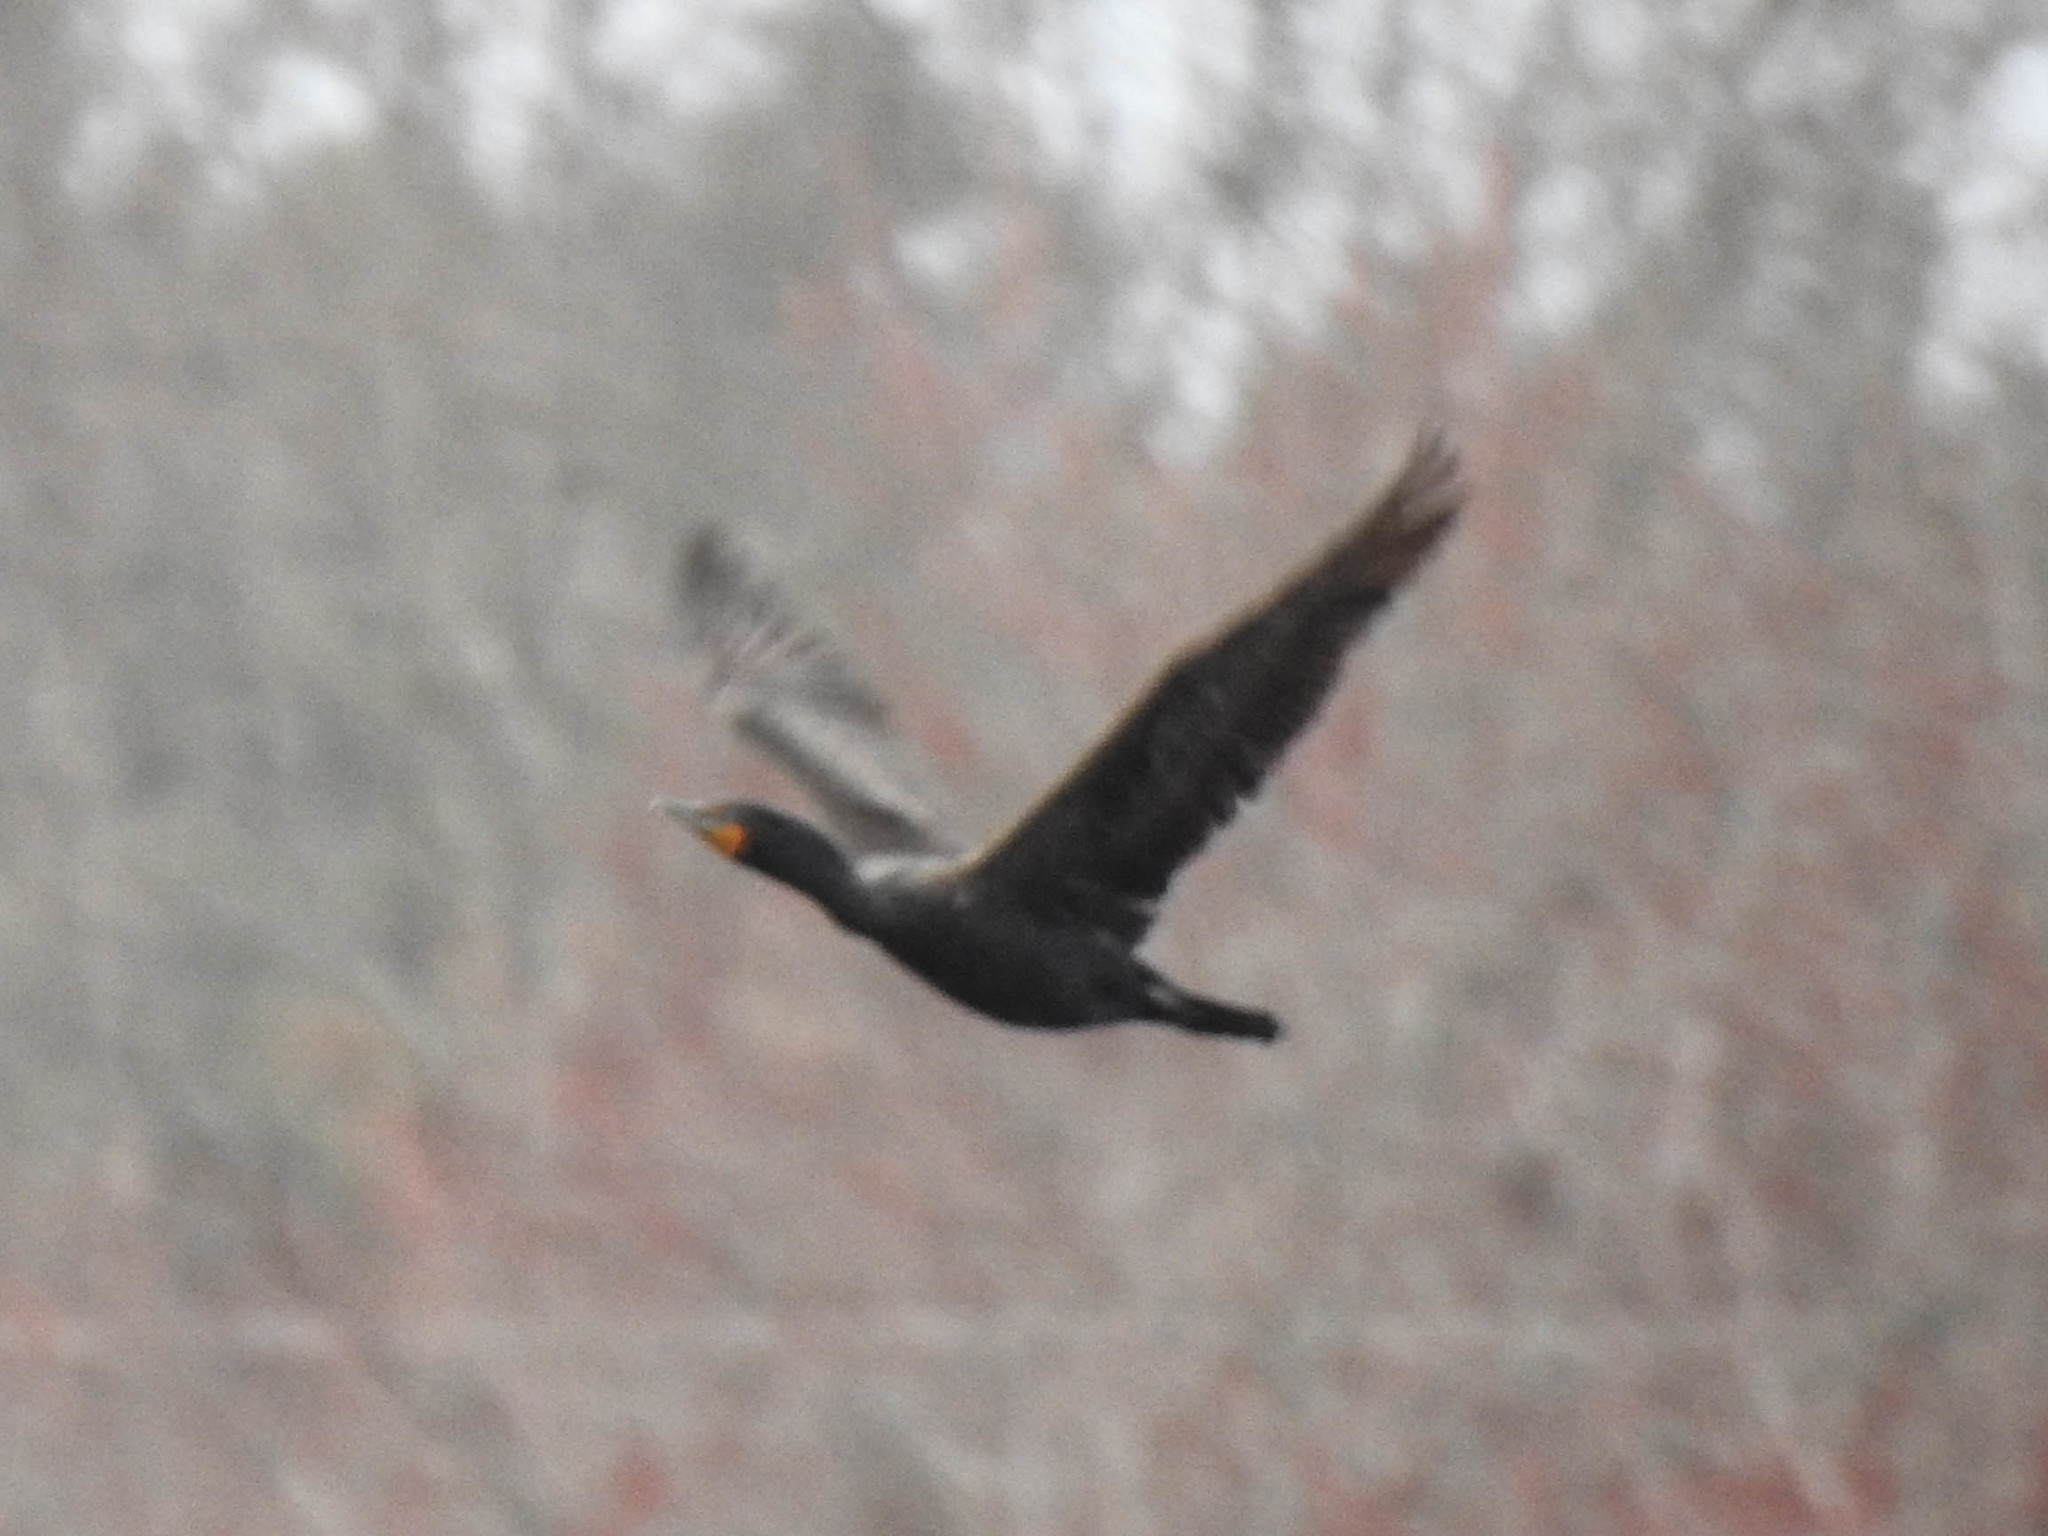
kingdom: Animalia
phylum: Chordata
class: Aves
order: Suliformes
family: Phalacrocoracidae
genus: Phalacrocorax
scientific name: Phalacrocorax auritus
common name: Double-crested cormorant
